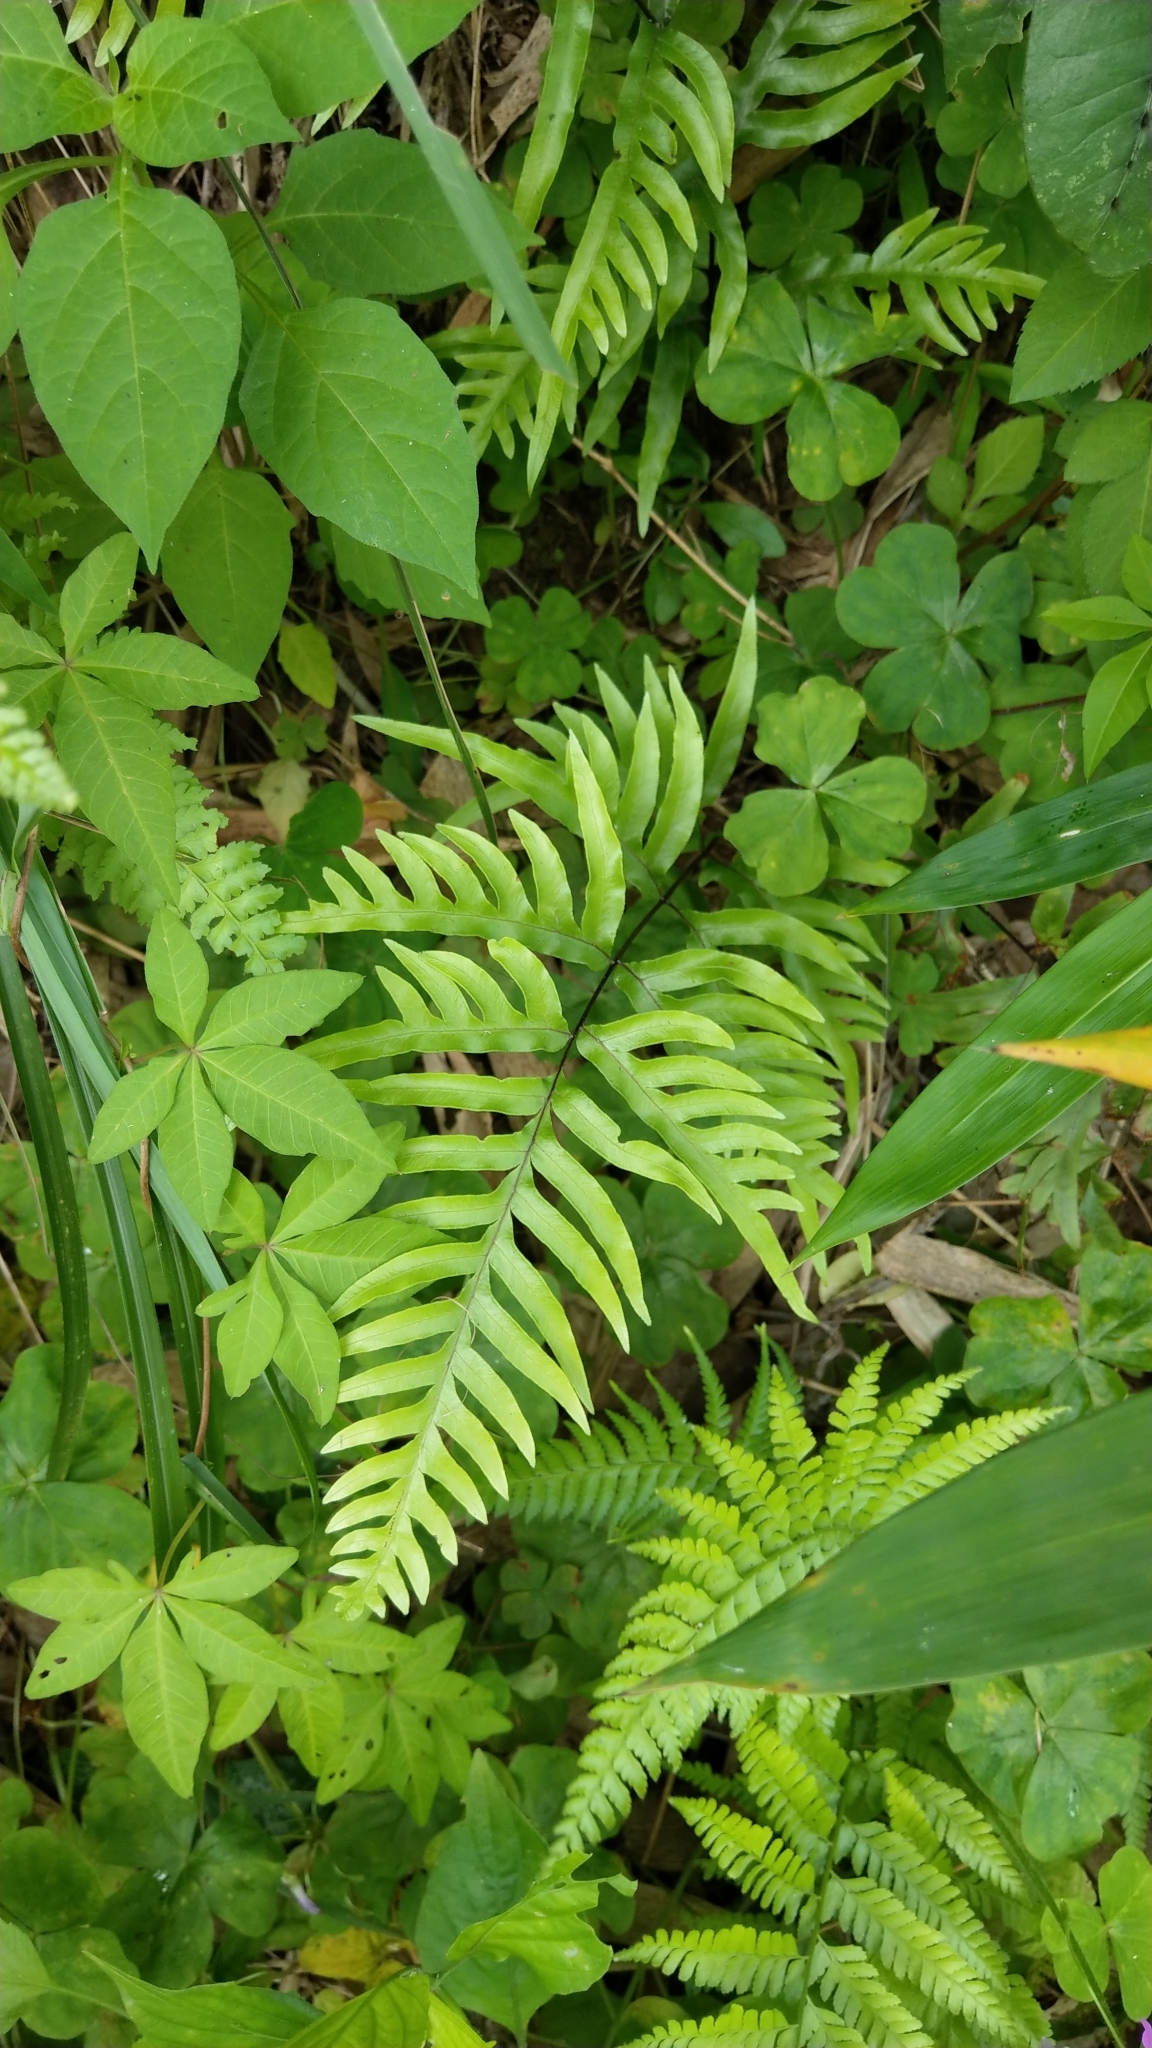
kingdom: Plantae
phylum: Tracheophyta
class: Polypodiopsida
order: Polypodiales
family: Pteridaceae
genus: Pteris
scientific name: Pteris semipinnata
